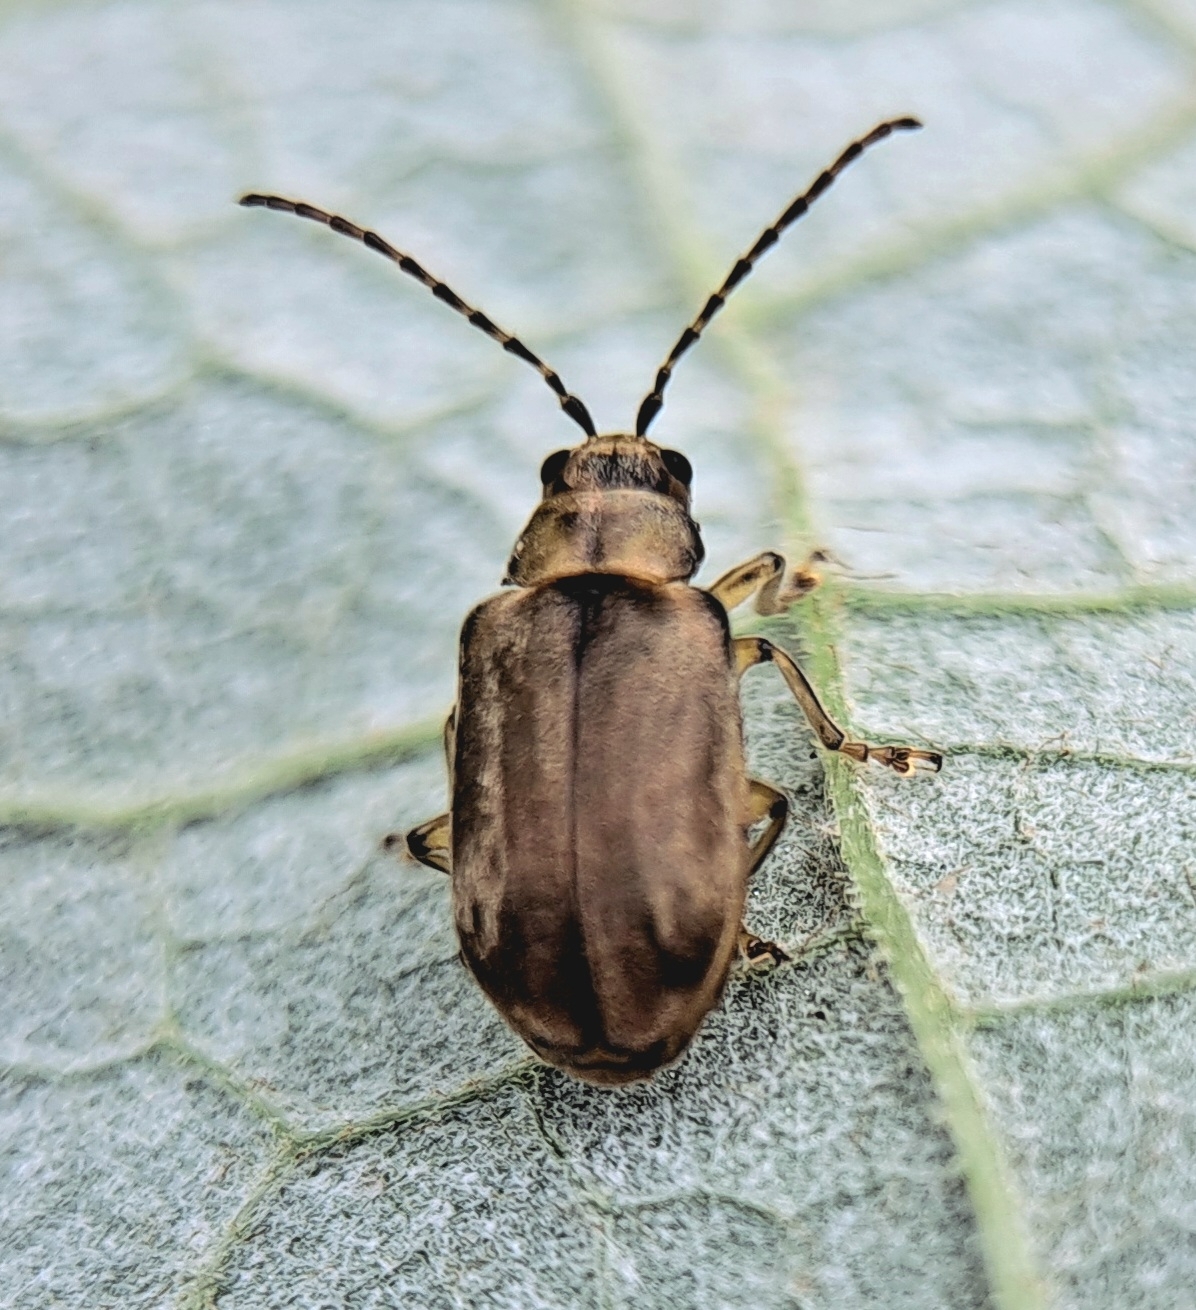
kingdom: Animalia
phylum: Arthropoda
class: Insecta
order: Coleoptera
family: Chrysomelidae
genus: Pyrrhalta
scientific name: Pyrrhalta viburni
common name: Guelder-rose leaf beetle
